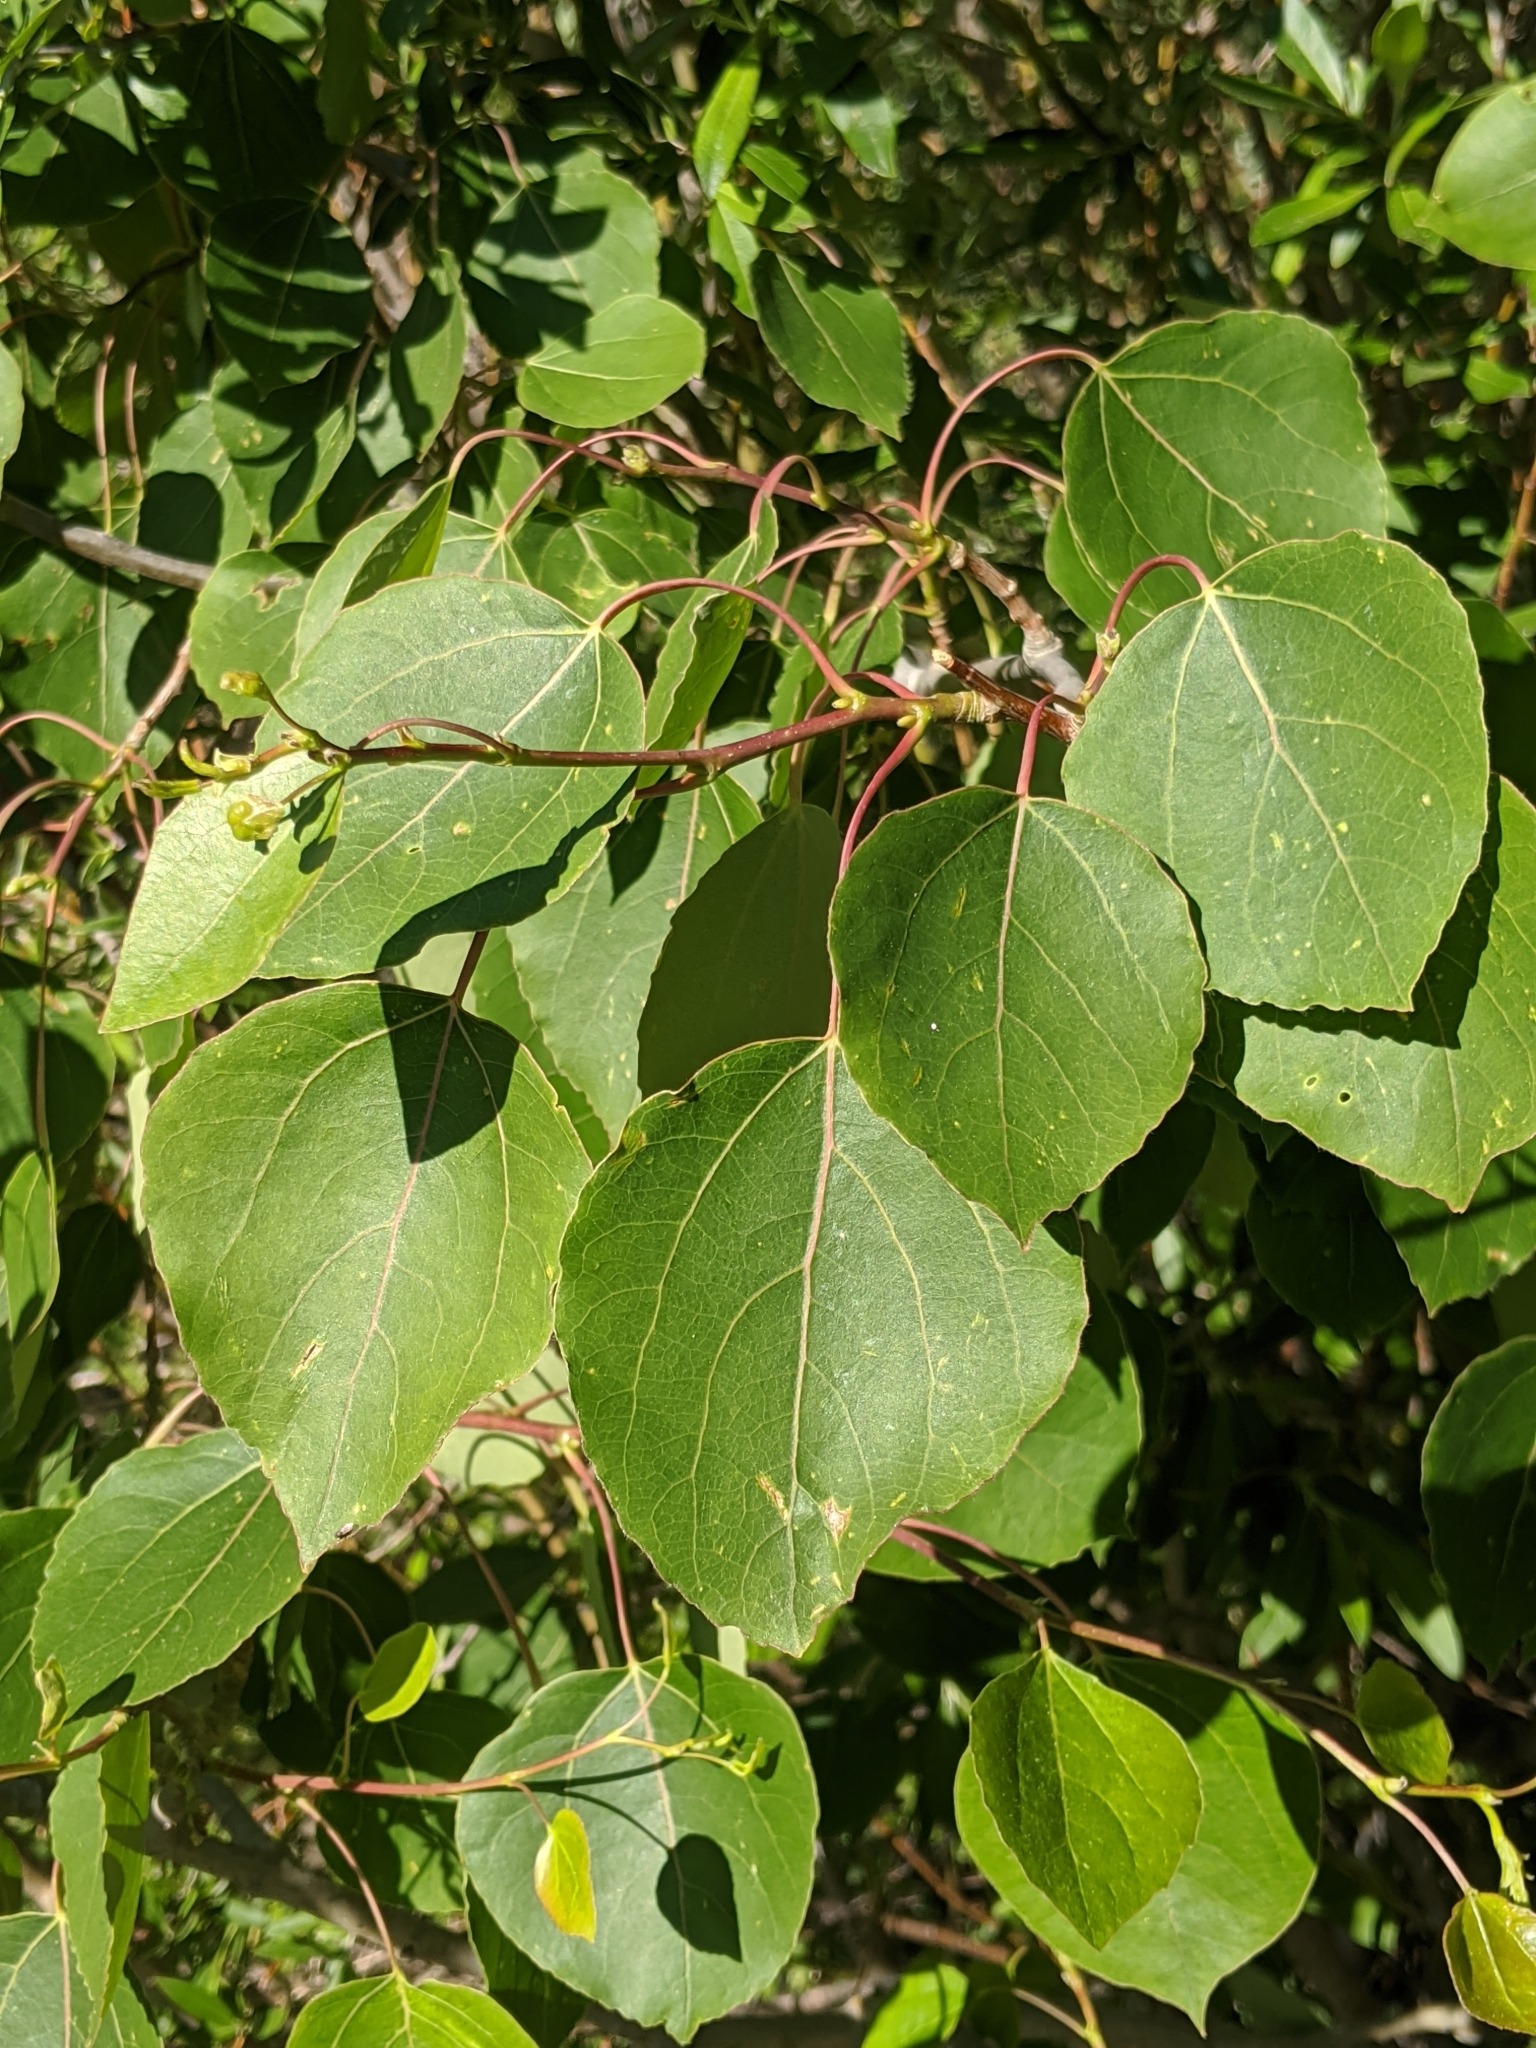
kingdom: Plantae
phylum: Tracheophyta
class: Magnoliopsida
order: Malpighiales
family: Salicaceae
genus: Populus
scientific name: Populus tremuloides
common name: Quaking aspen
